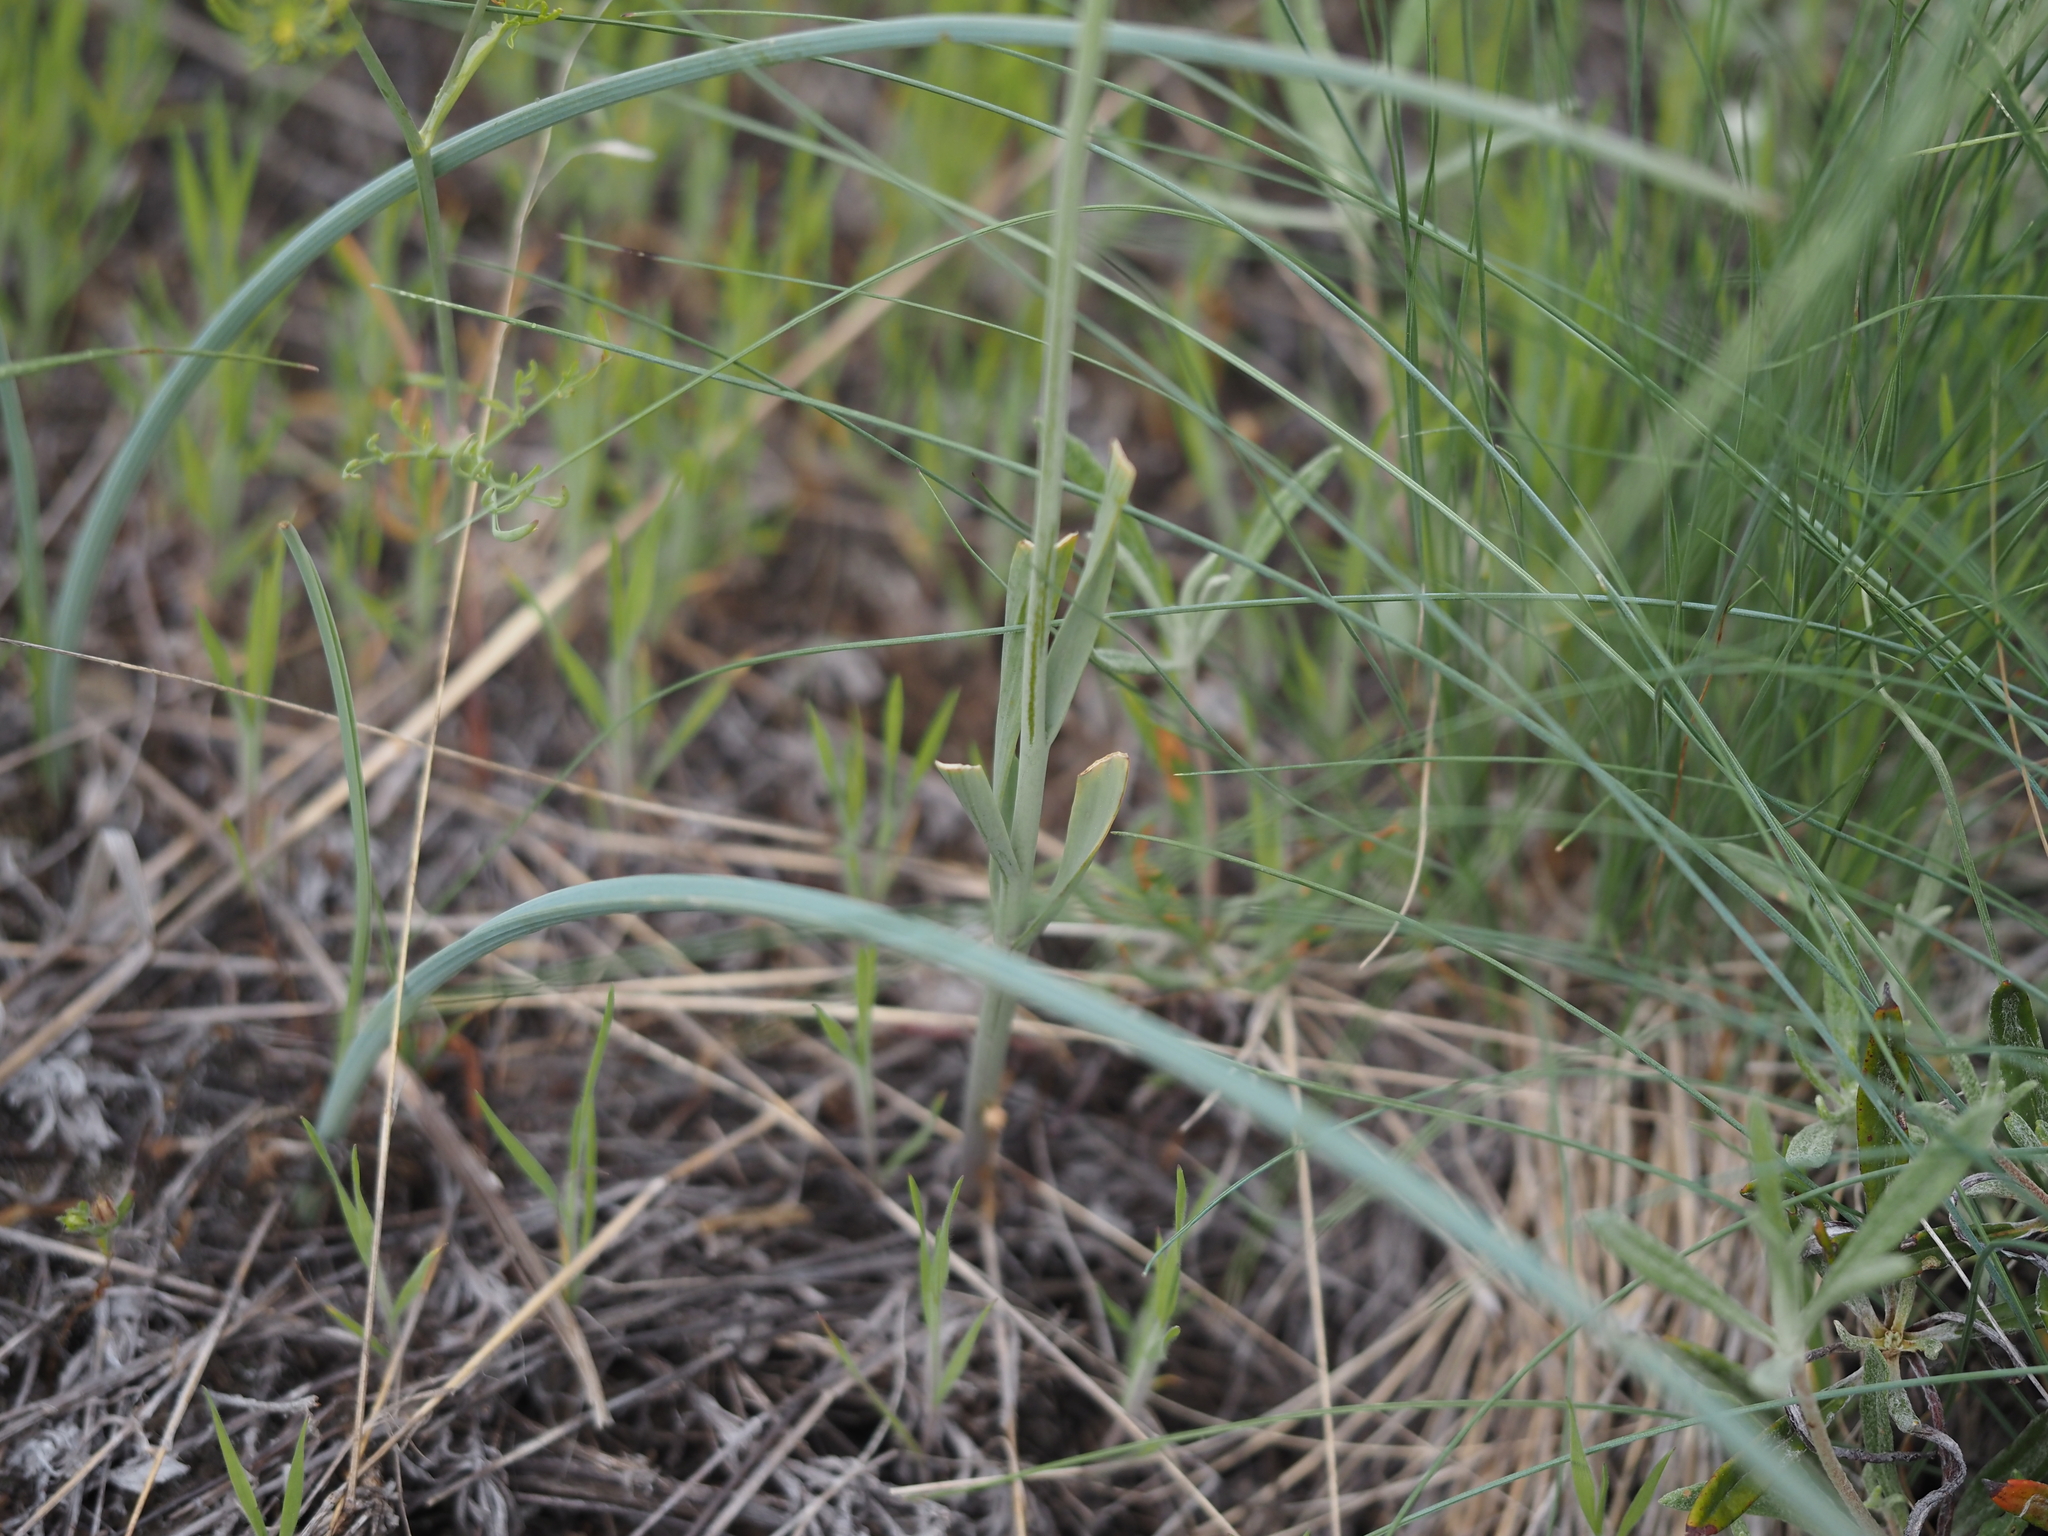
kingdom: Plantae
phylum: Tracheophyta
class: Liliopsida
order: Liliales
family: Liliaceae
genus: Fritillaria
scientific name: Fritillaria pudica
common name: Yellow fritillary
